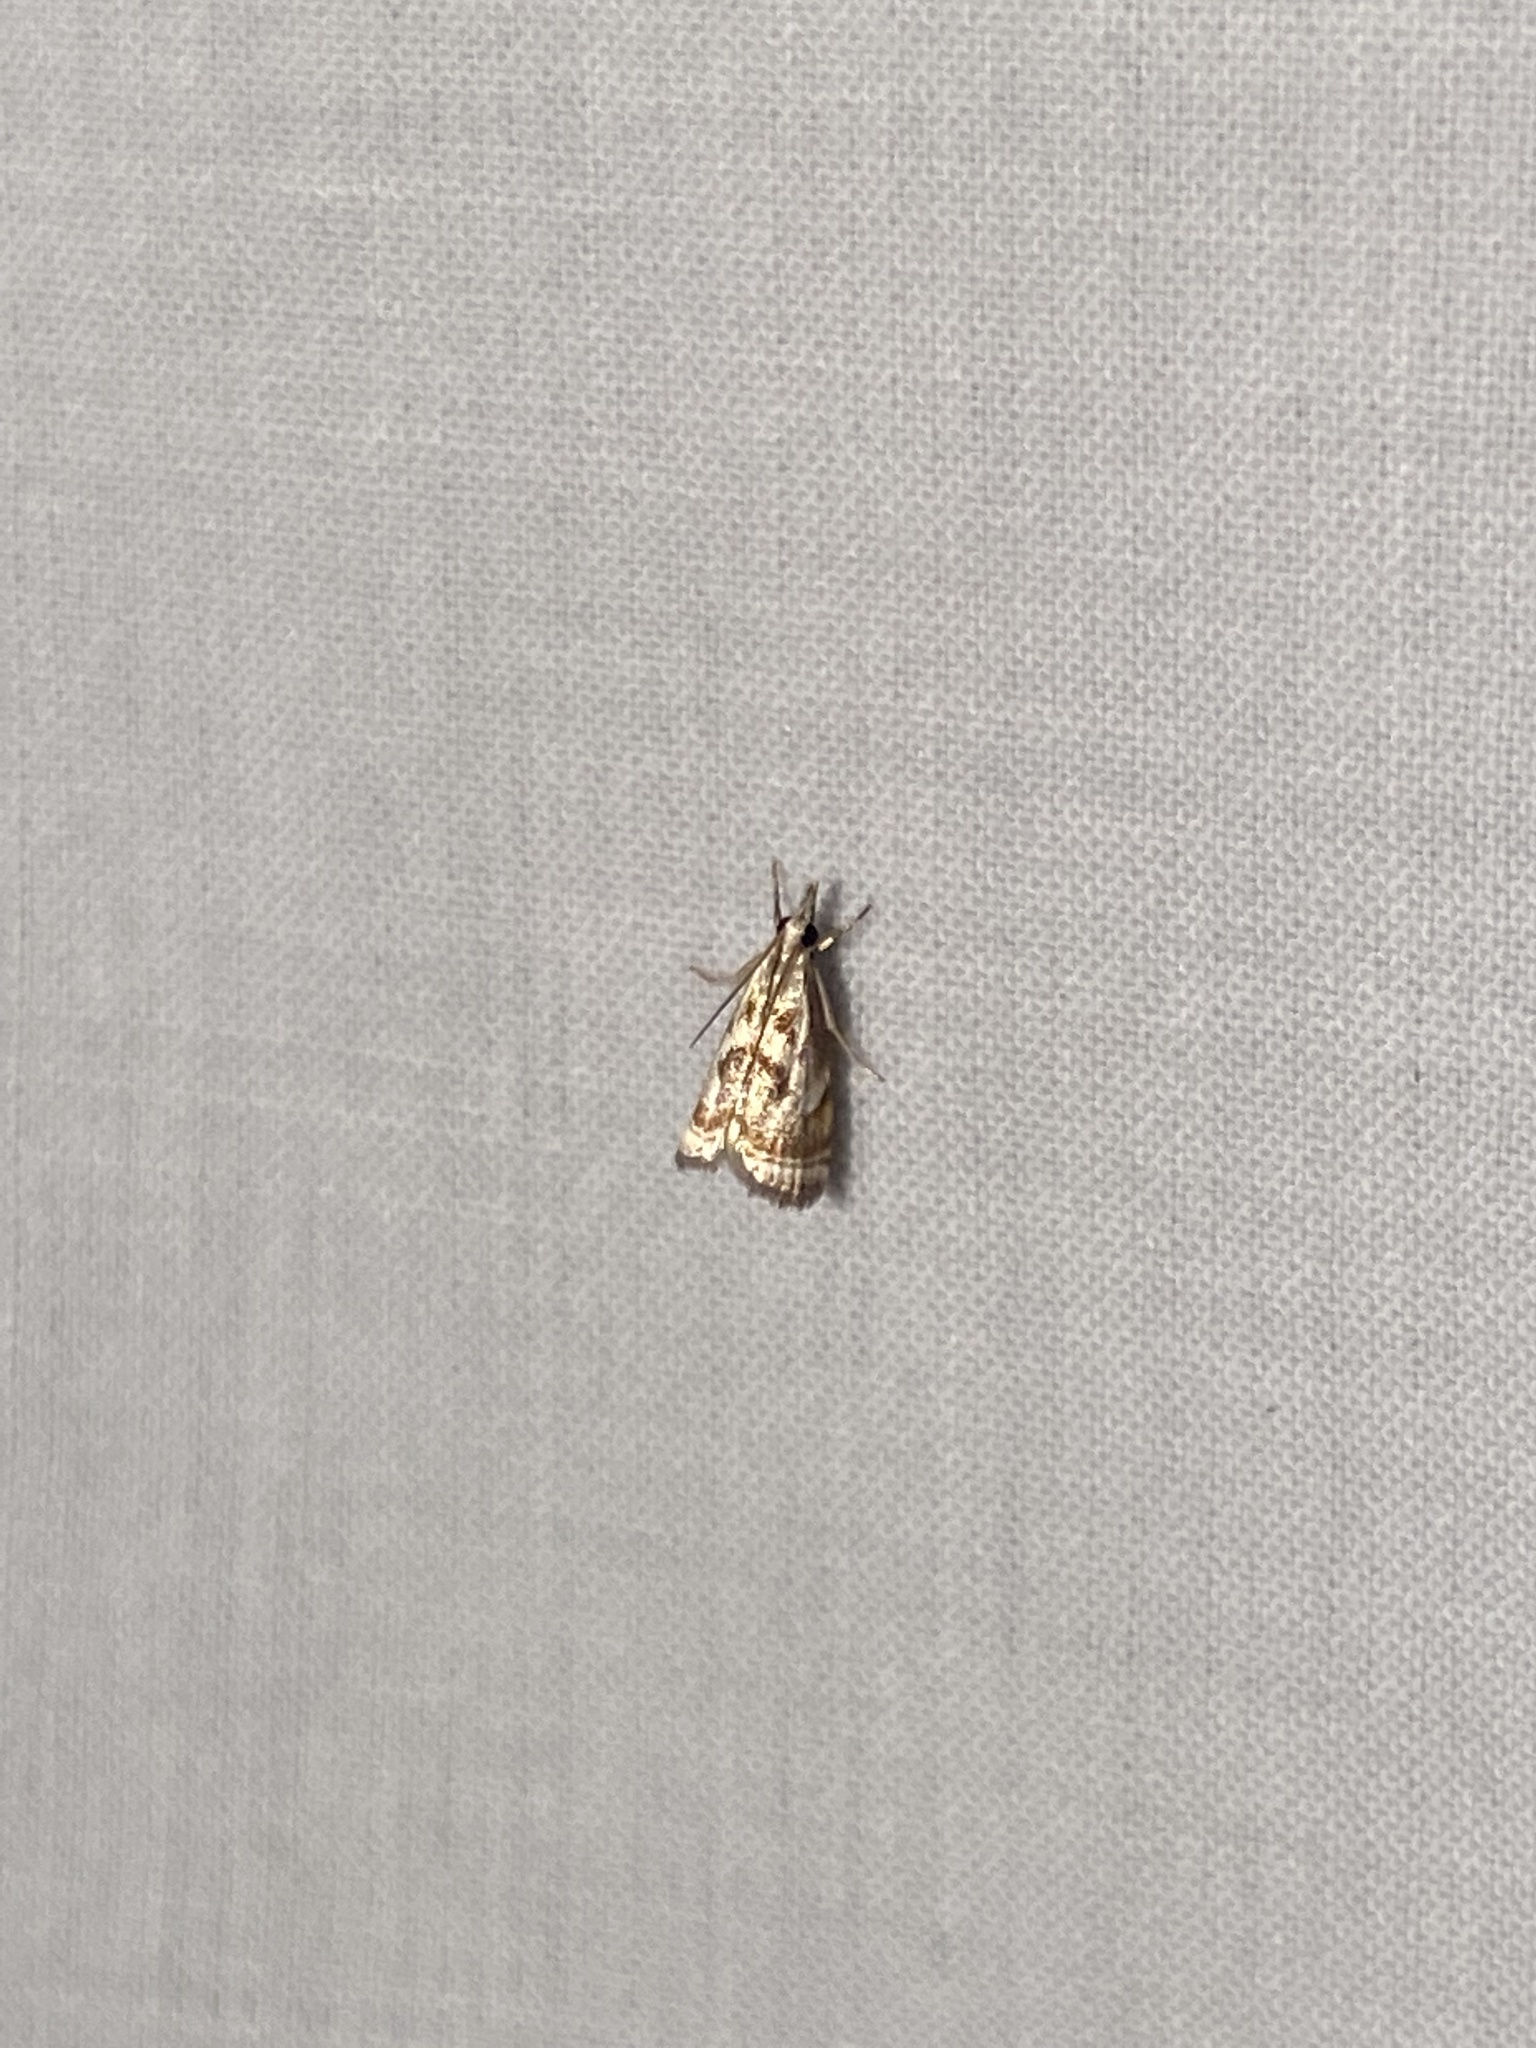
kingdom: Animalia
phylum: Arthropoda
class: Insecta
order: Lepidoptera
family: Crambidae
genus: Microcrambus
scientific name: Microcrambus elegans
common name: Elegant grass-veneer
